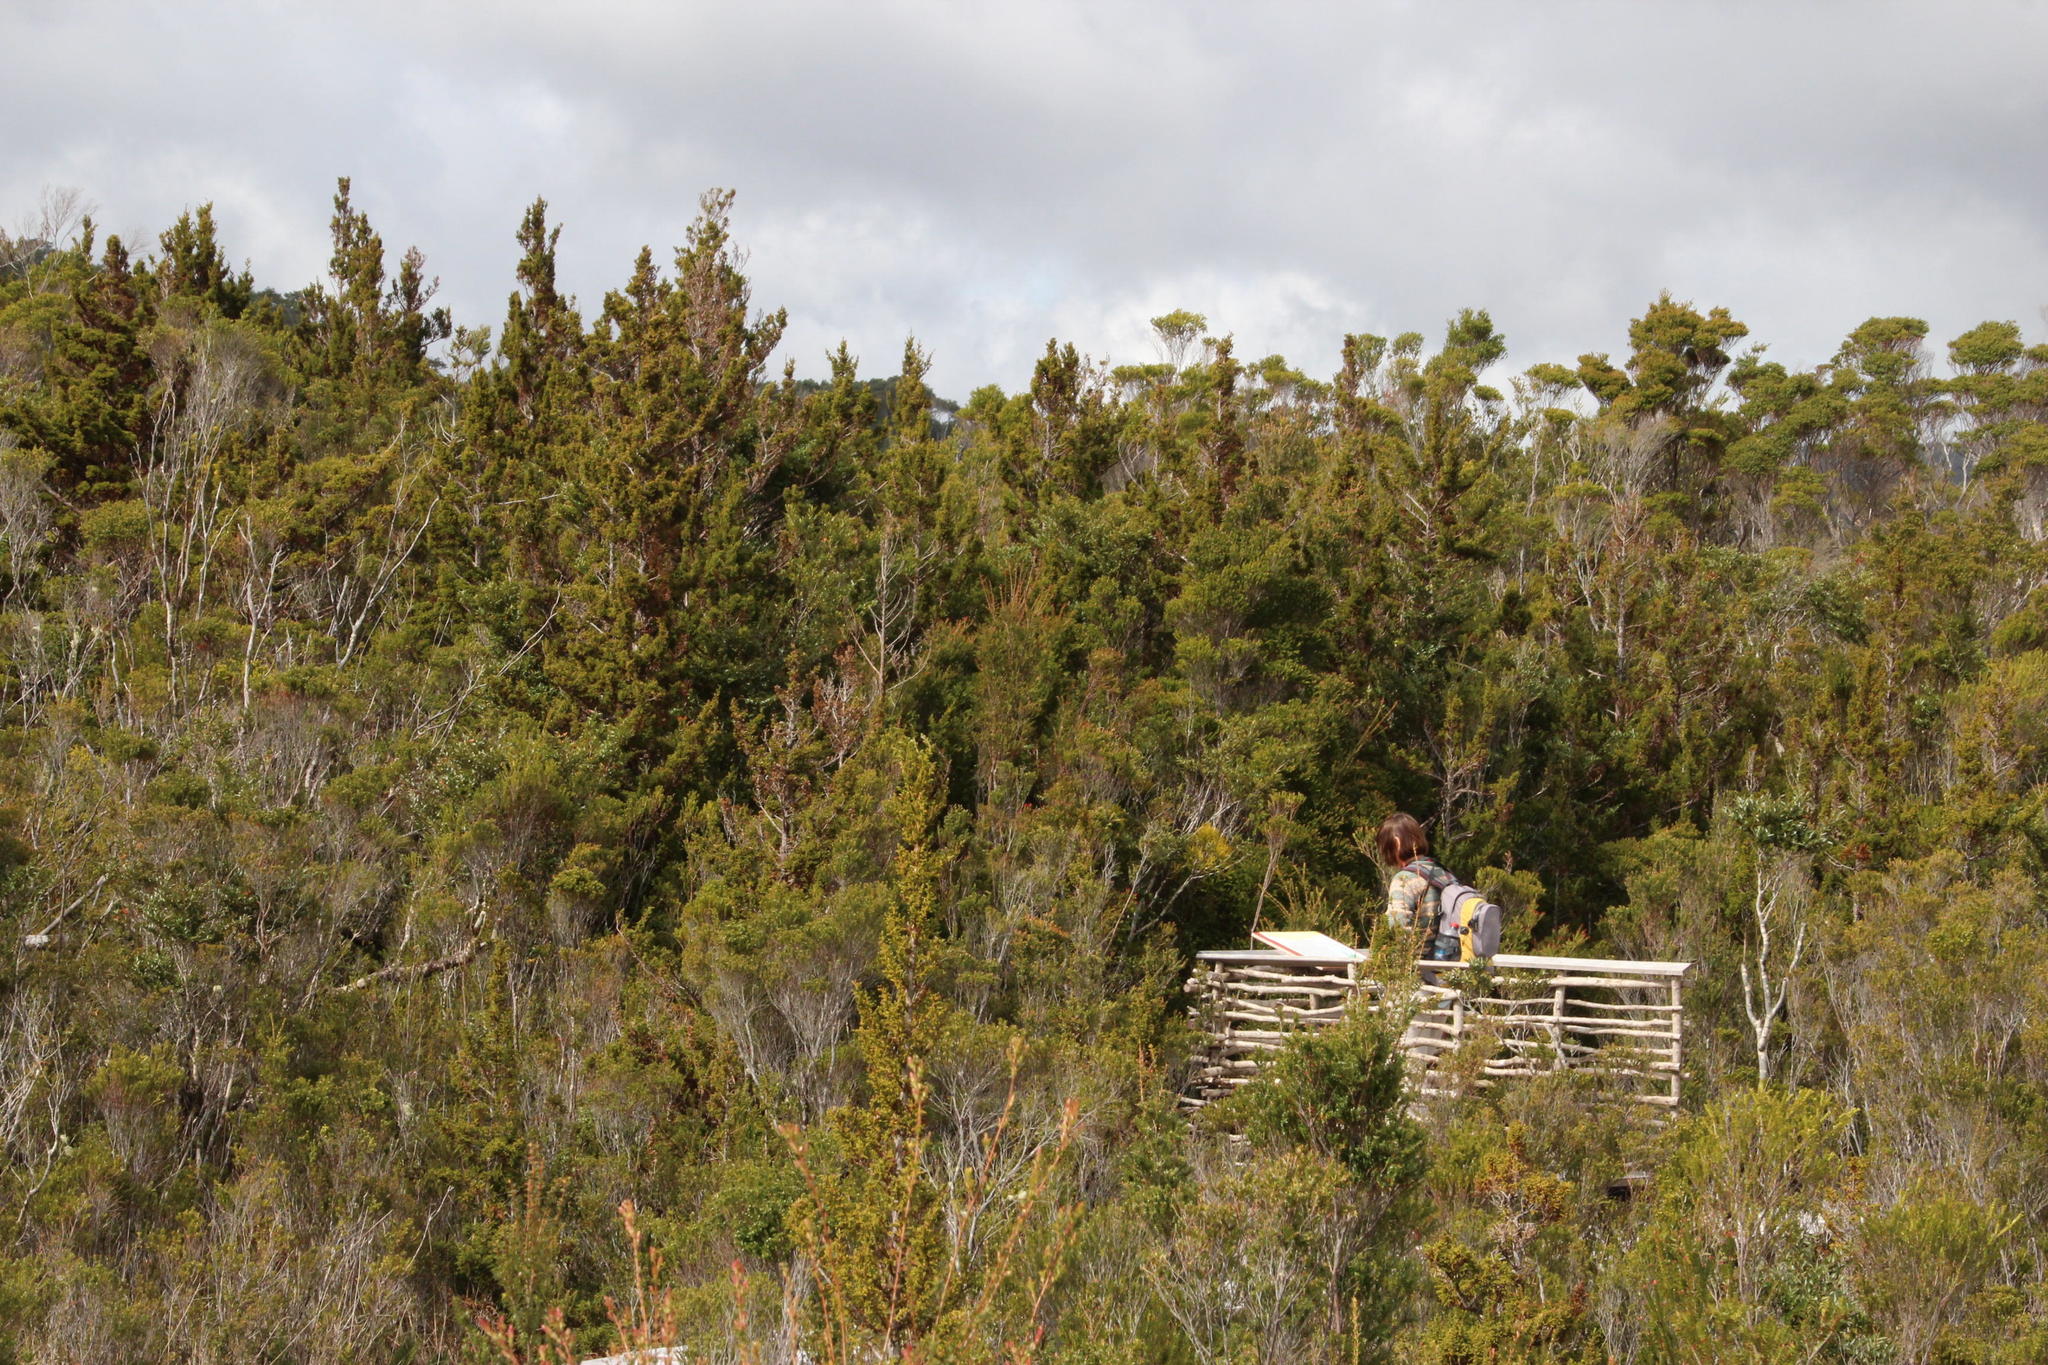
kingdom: Plantae
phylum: Tracheophyta
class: Pinopsida
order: Pinales
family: Cupressaceae
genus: Pilgerodendron
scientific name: Pilgerodendron uviferum
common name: Guaitecas cypress
